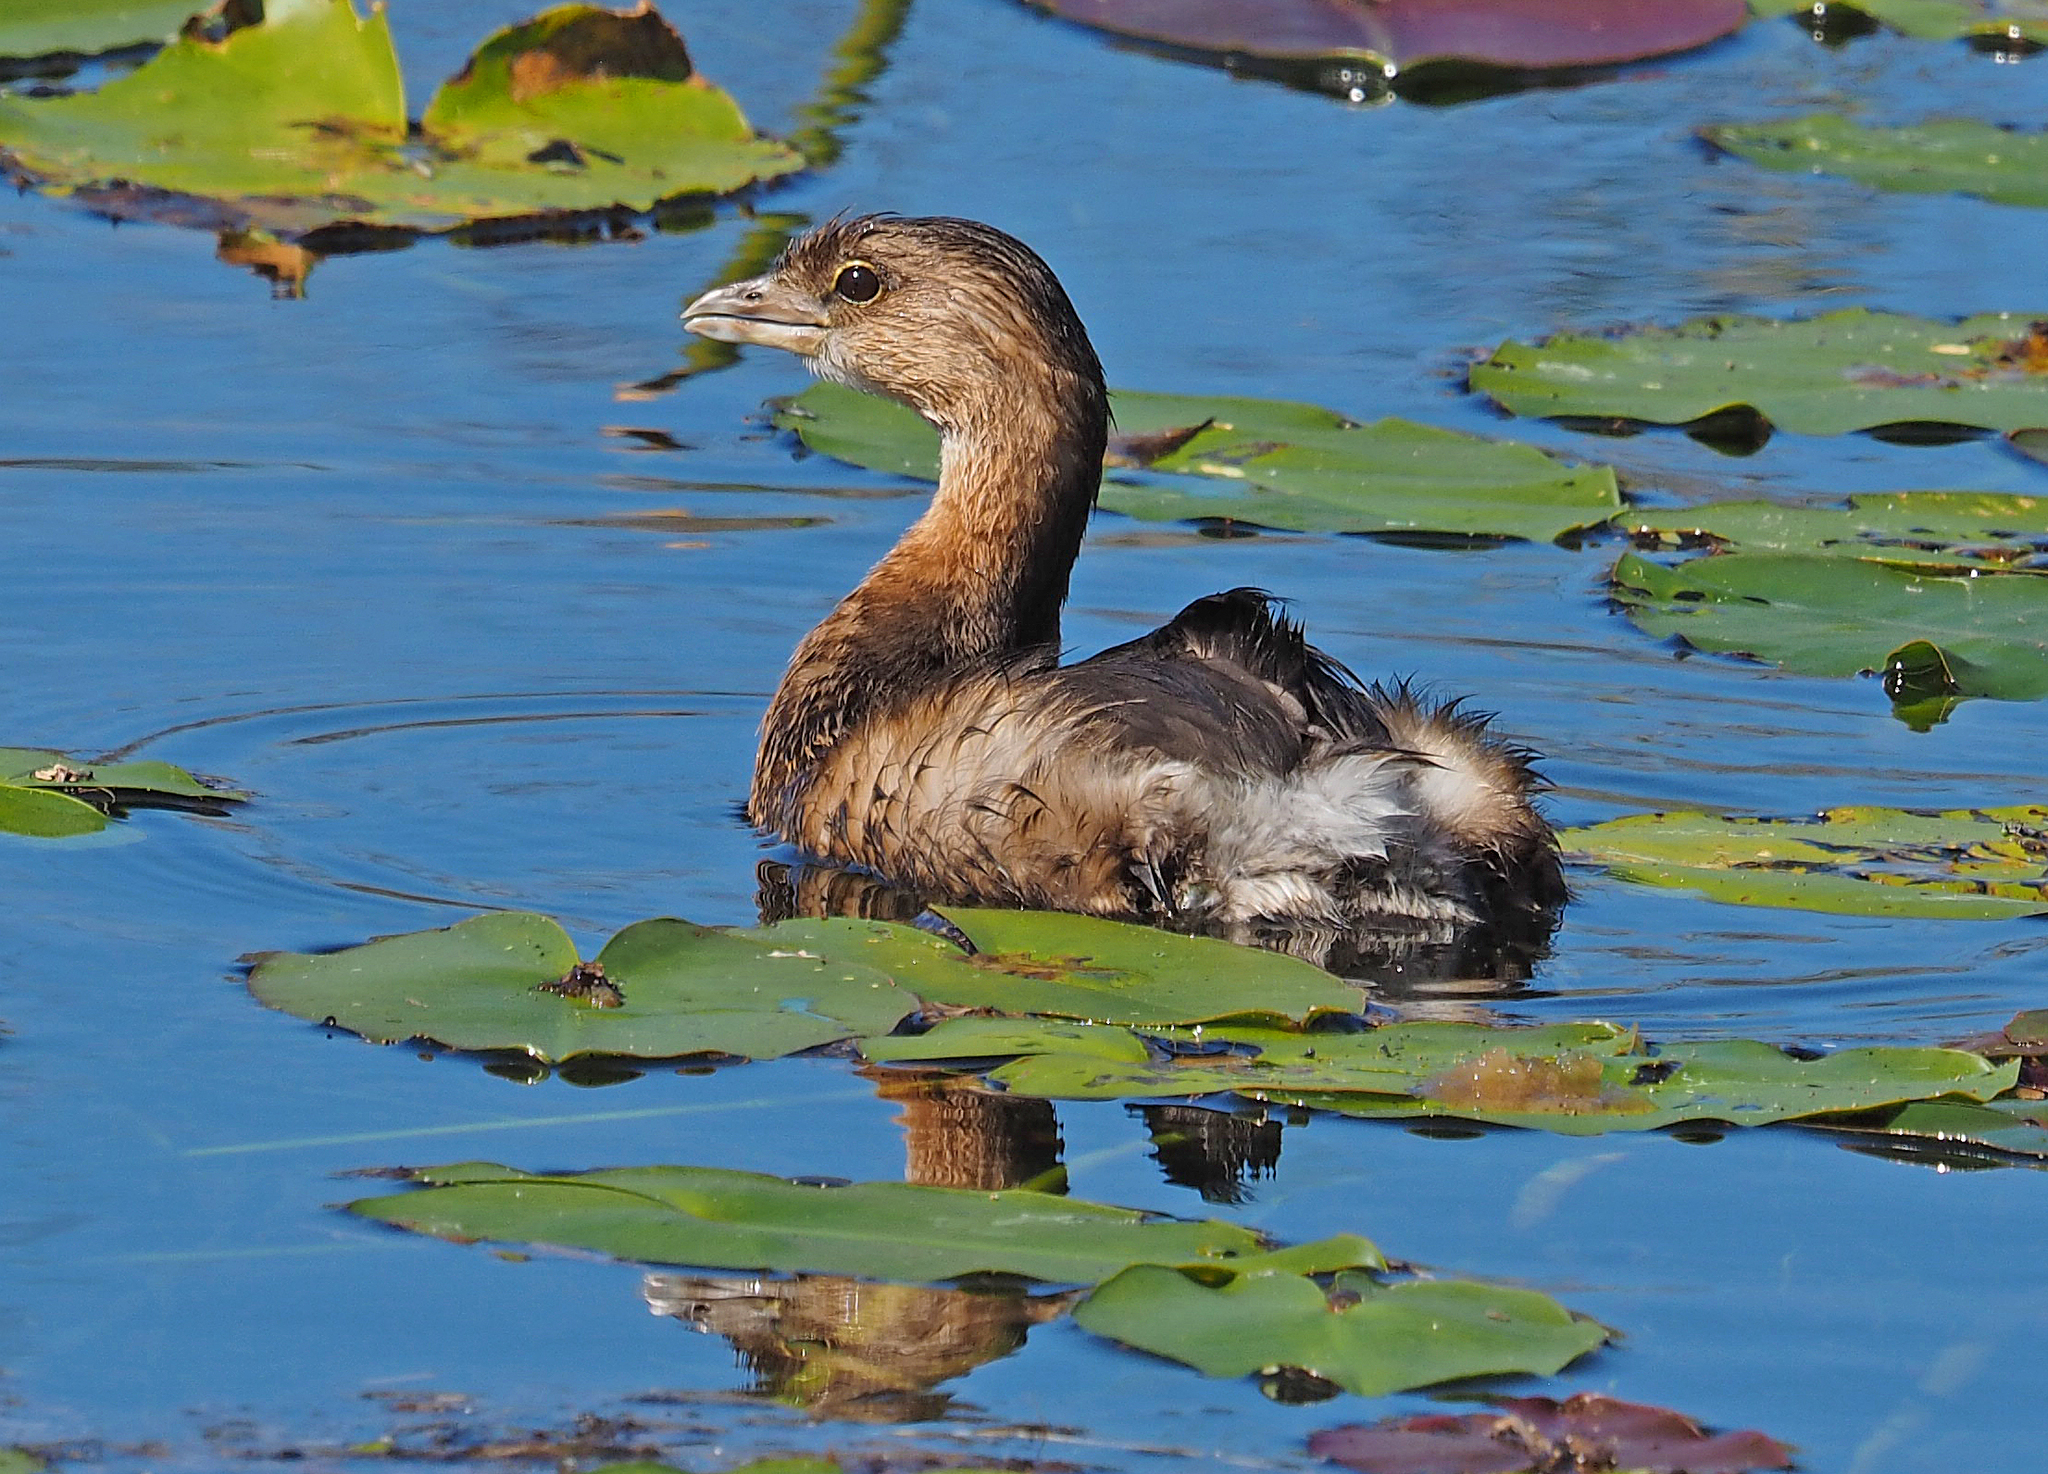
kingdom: Animalia
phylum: Chordata
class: Aves
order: Podicipediformes
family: Podicipedidae
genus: Podilymbus
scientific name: Podilymbus podiceps
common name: Pied-billed grebe
